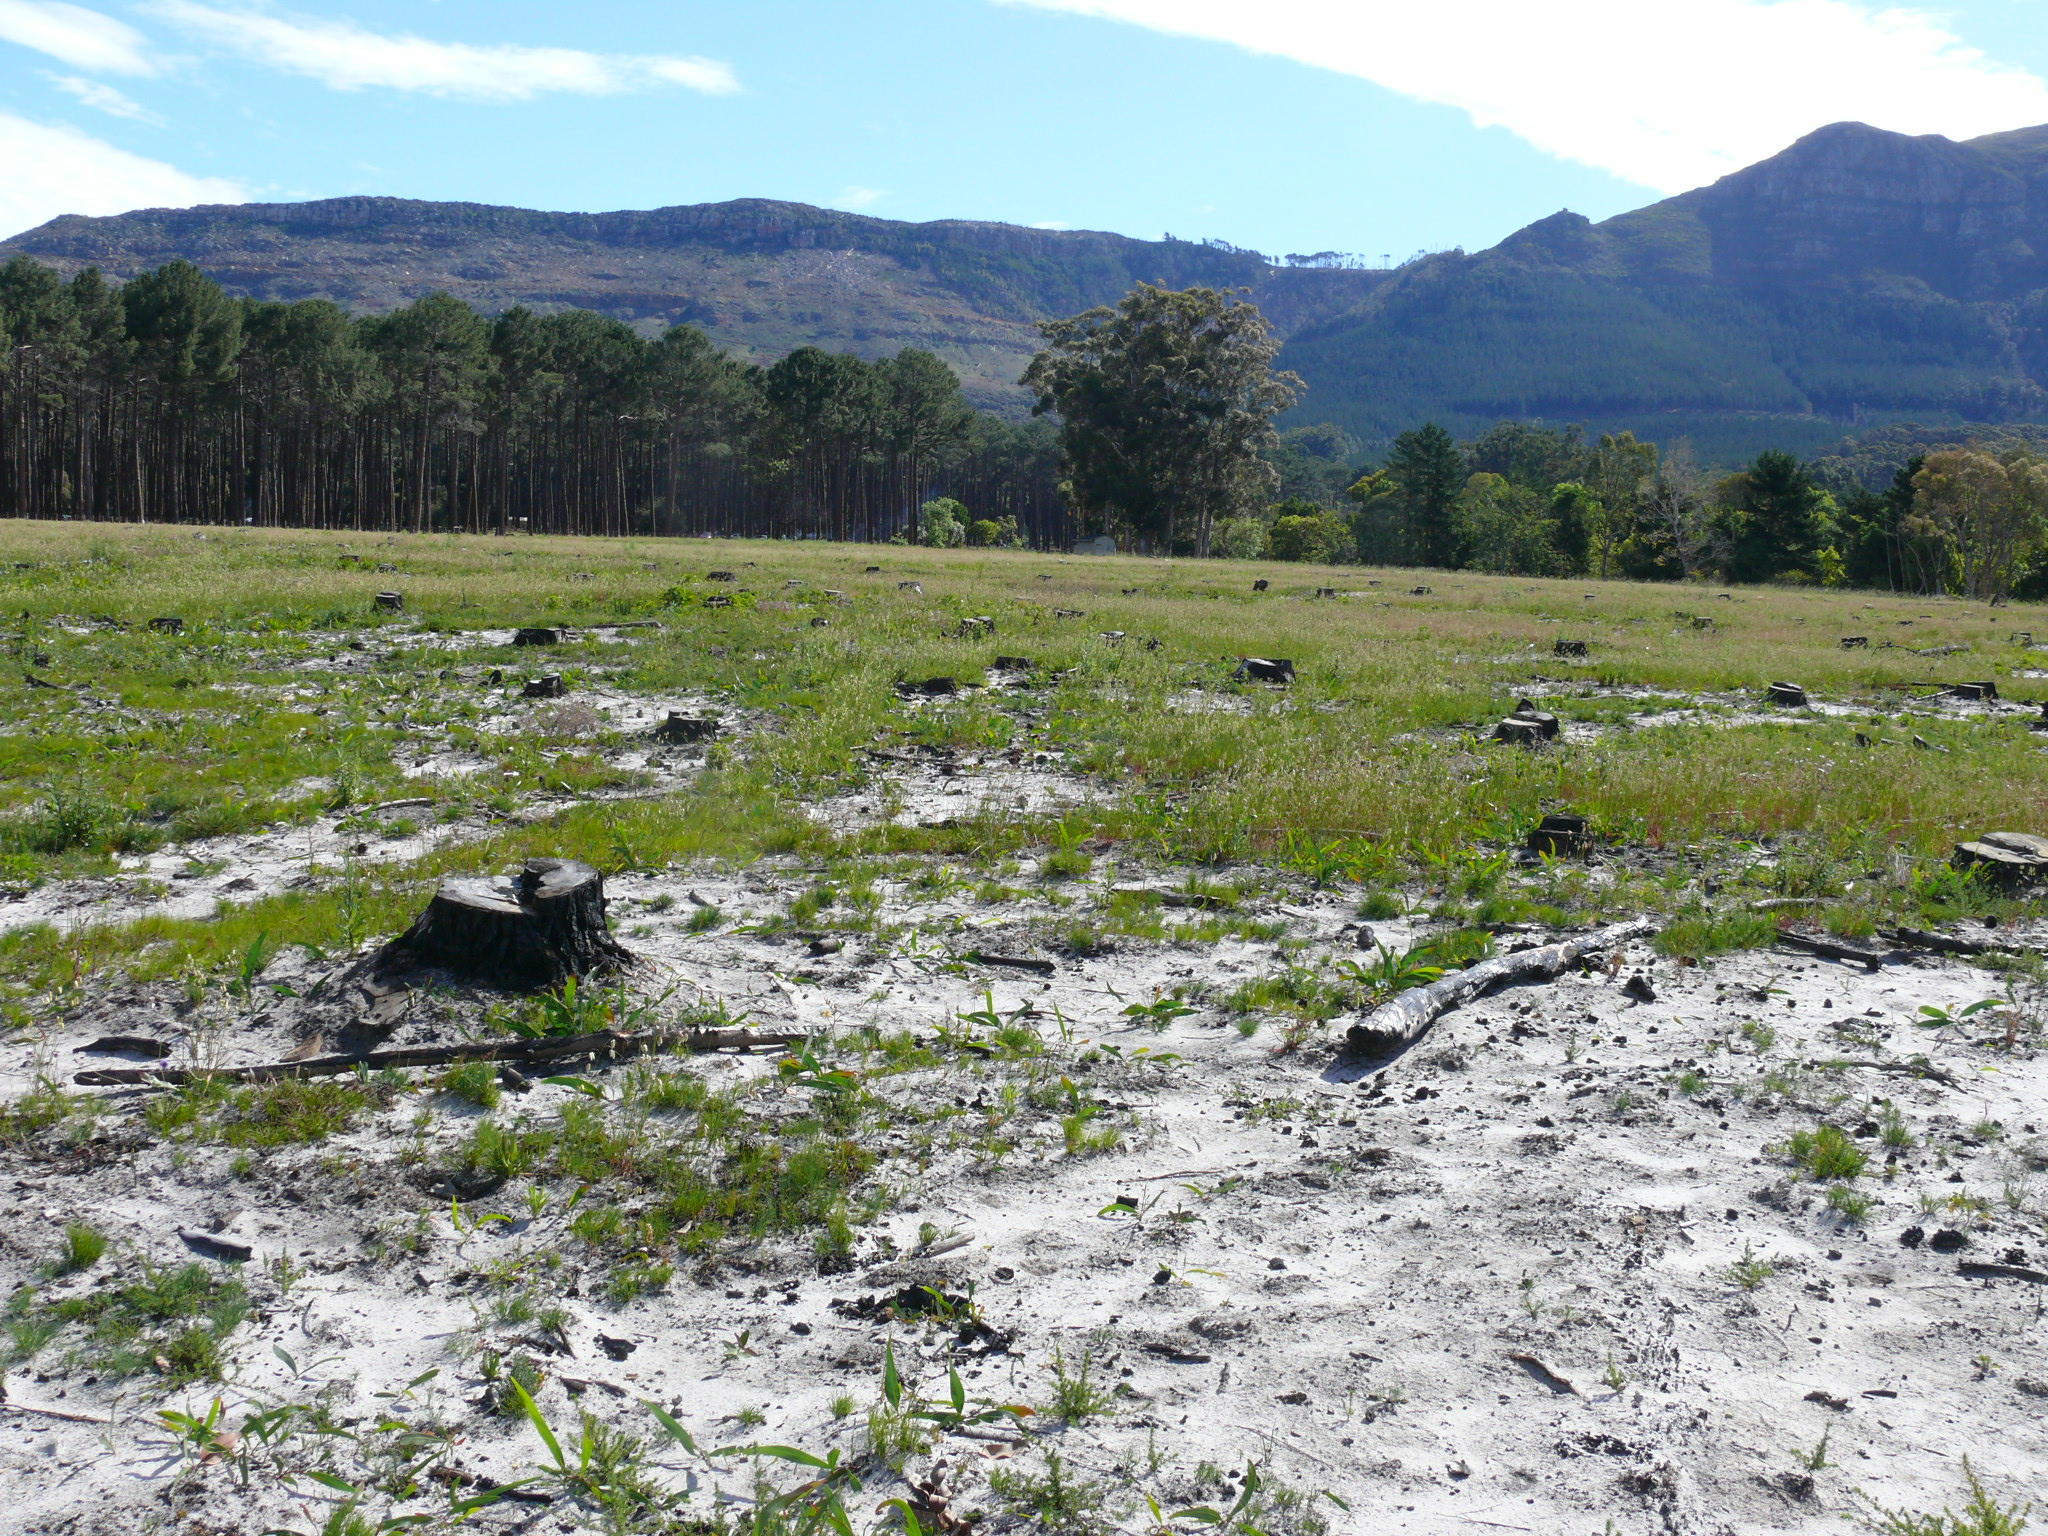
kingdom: Plantae
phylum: Tracheophyta
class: Magnoliopsida
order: Fabales
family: Fabaceae
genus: Acacia
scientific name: Acacia saligna
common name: Orange wattle
